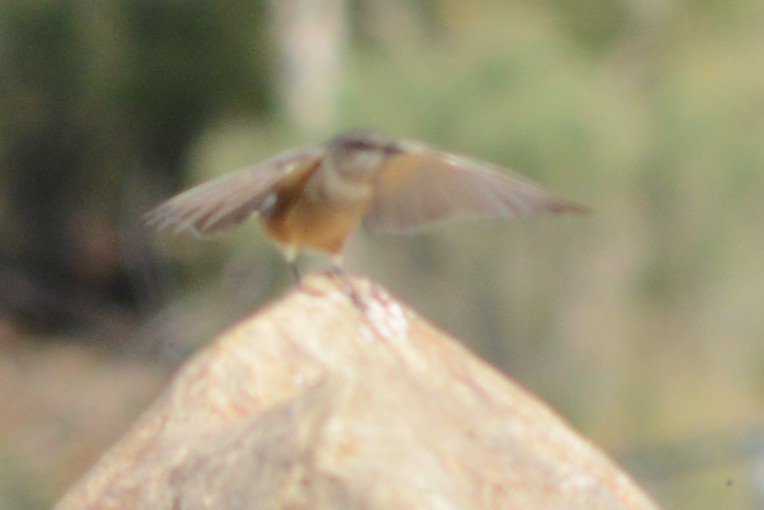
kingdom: Animalia
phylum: Chordata
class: Aves
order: Passeriformes
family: Tyrannidae
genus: Sayornis
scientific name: Sayornis saya
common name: Say's phoebe
